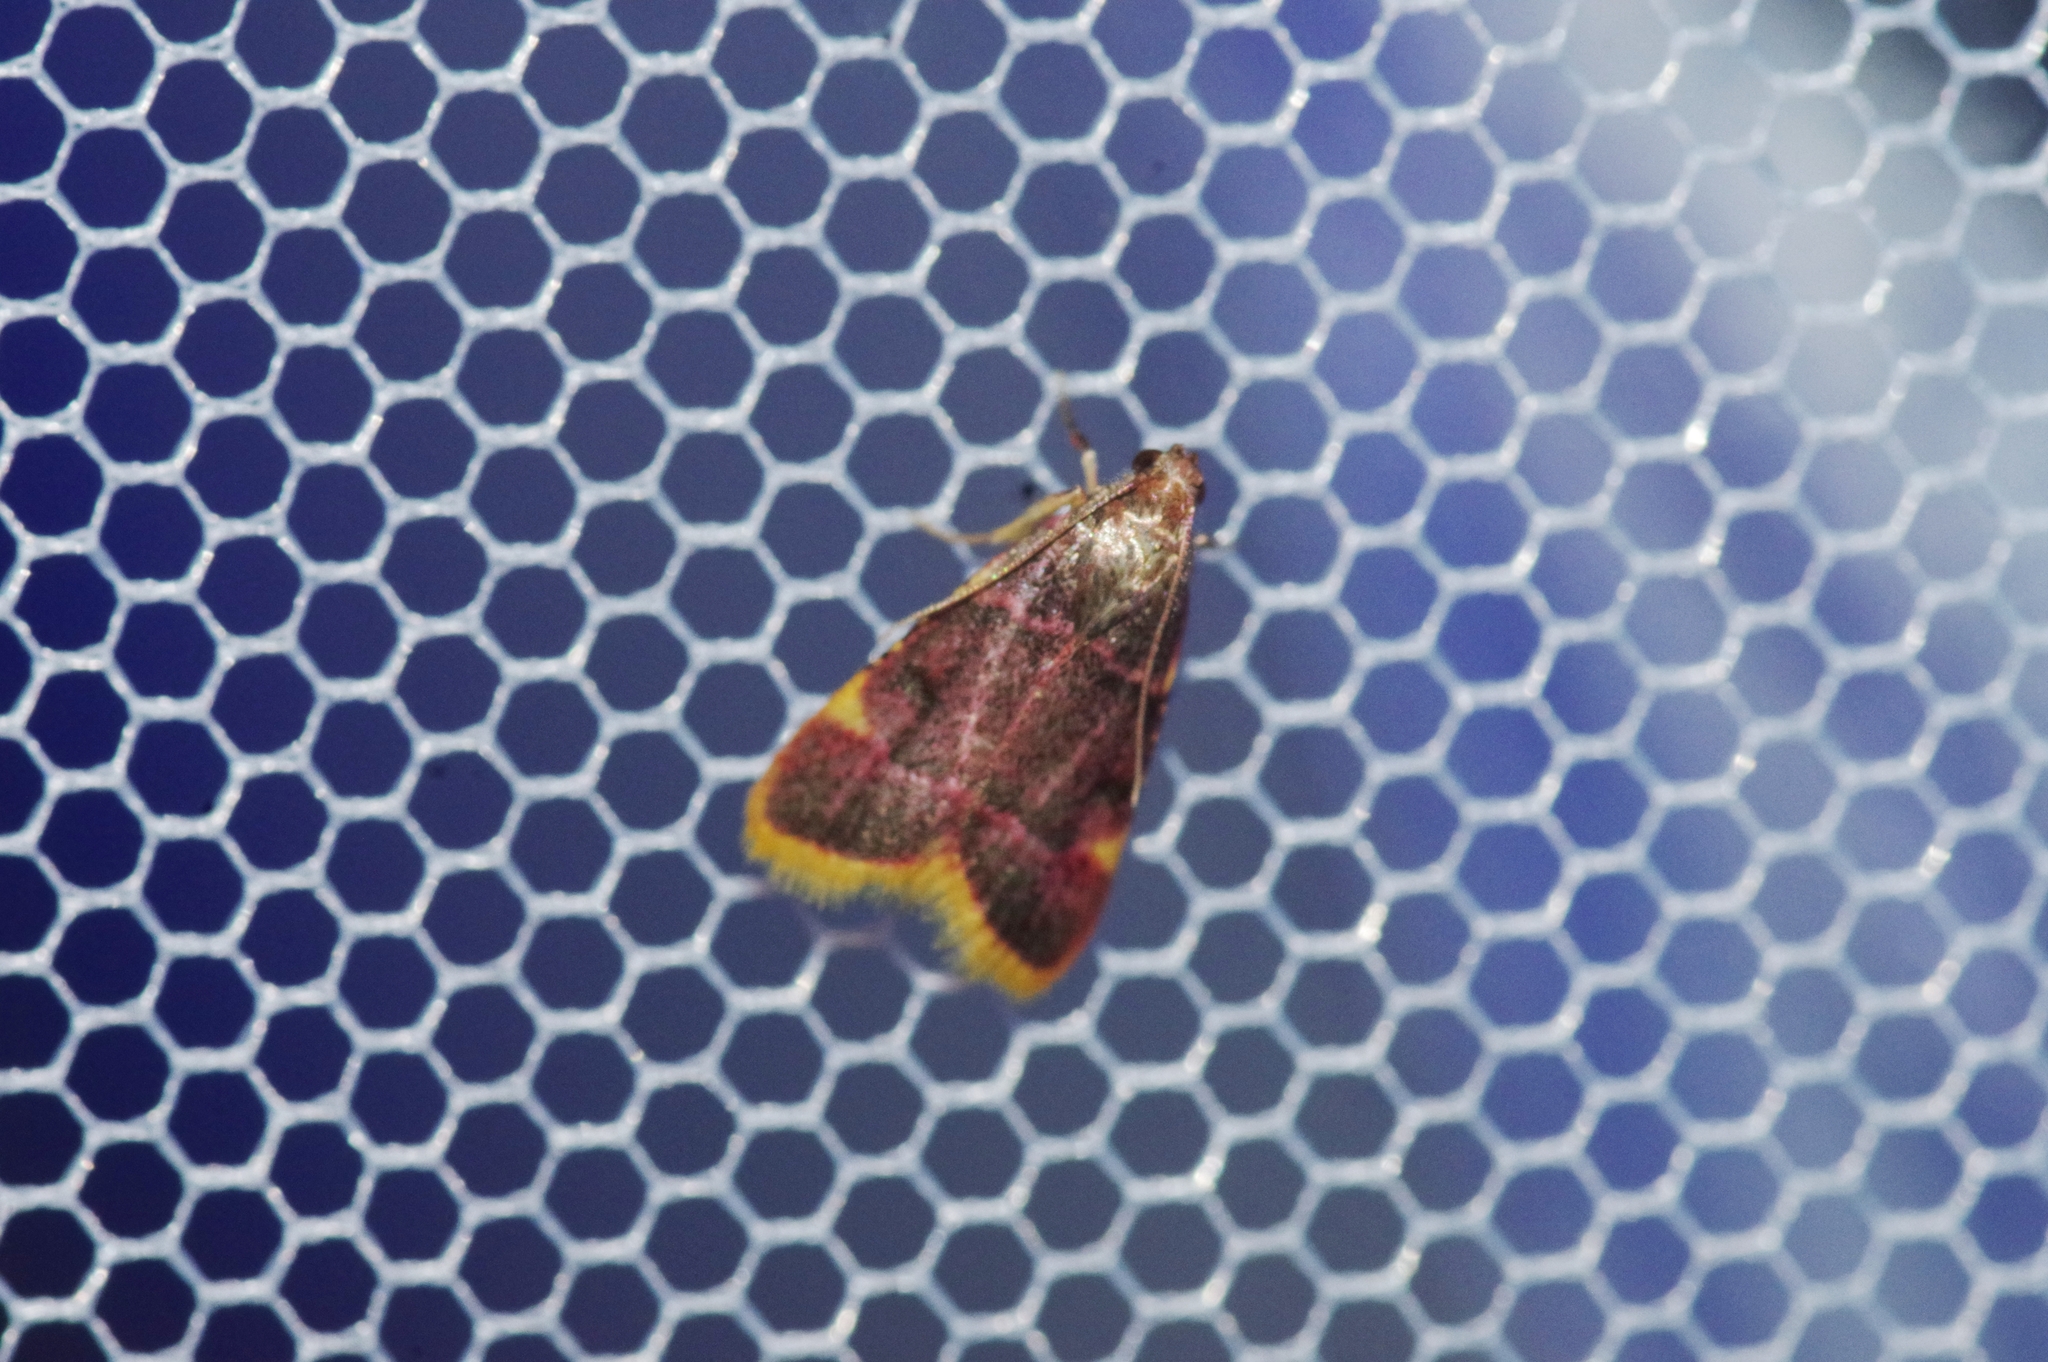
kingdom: Animalia
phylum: Arthropoda
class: Insecta
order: Lepidoptera
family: Pyralidae
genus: Hypsopygia
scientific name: Hypsopygia regina
